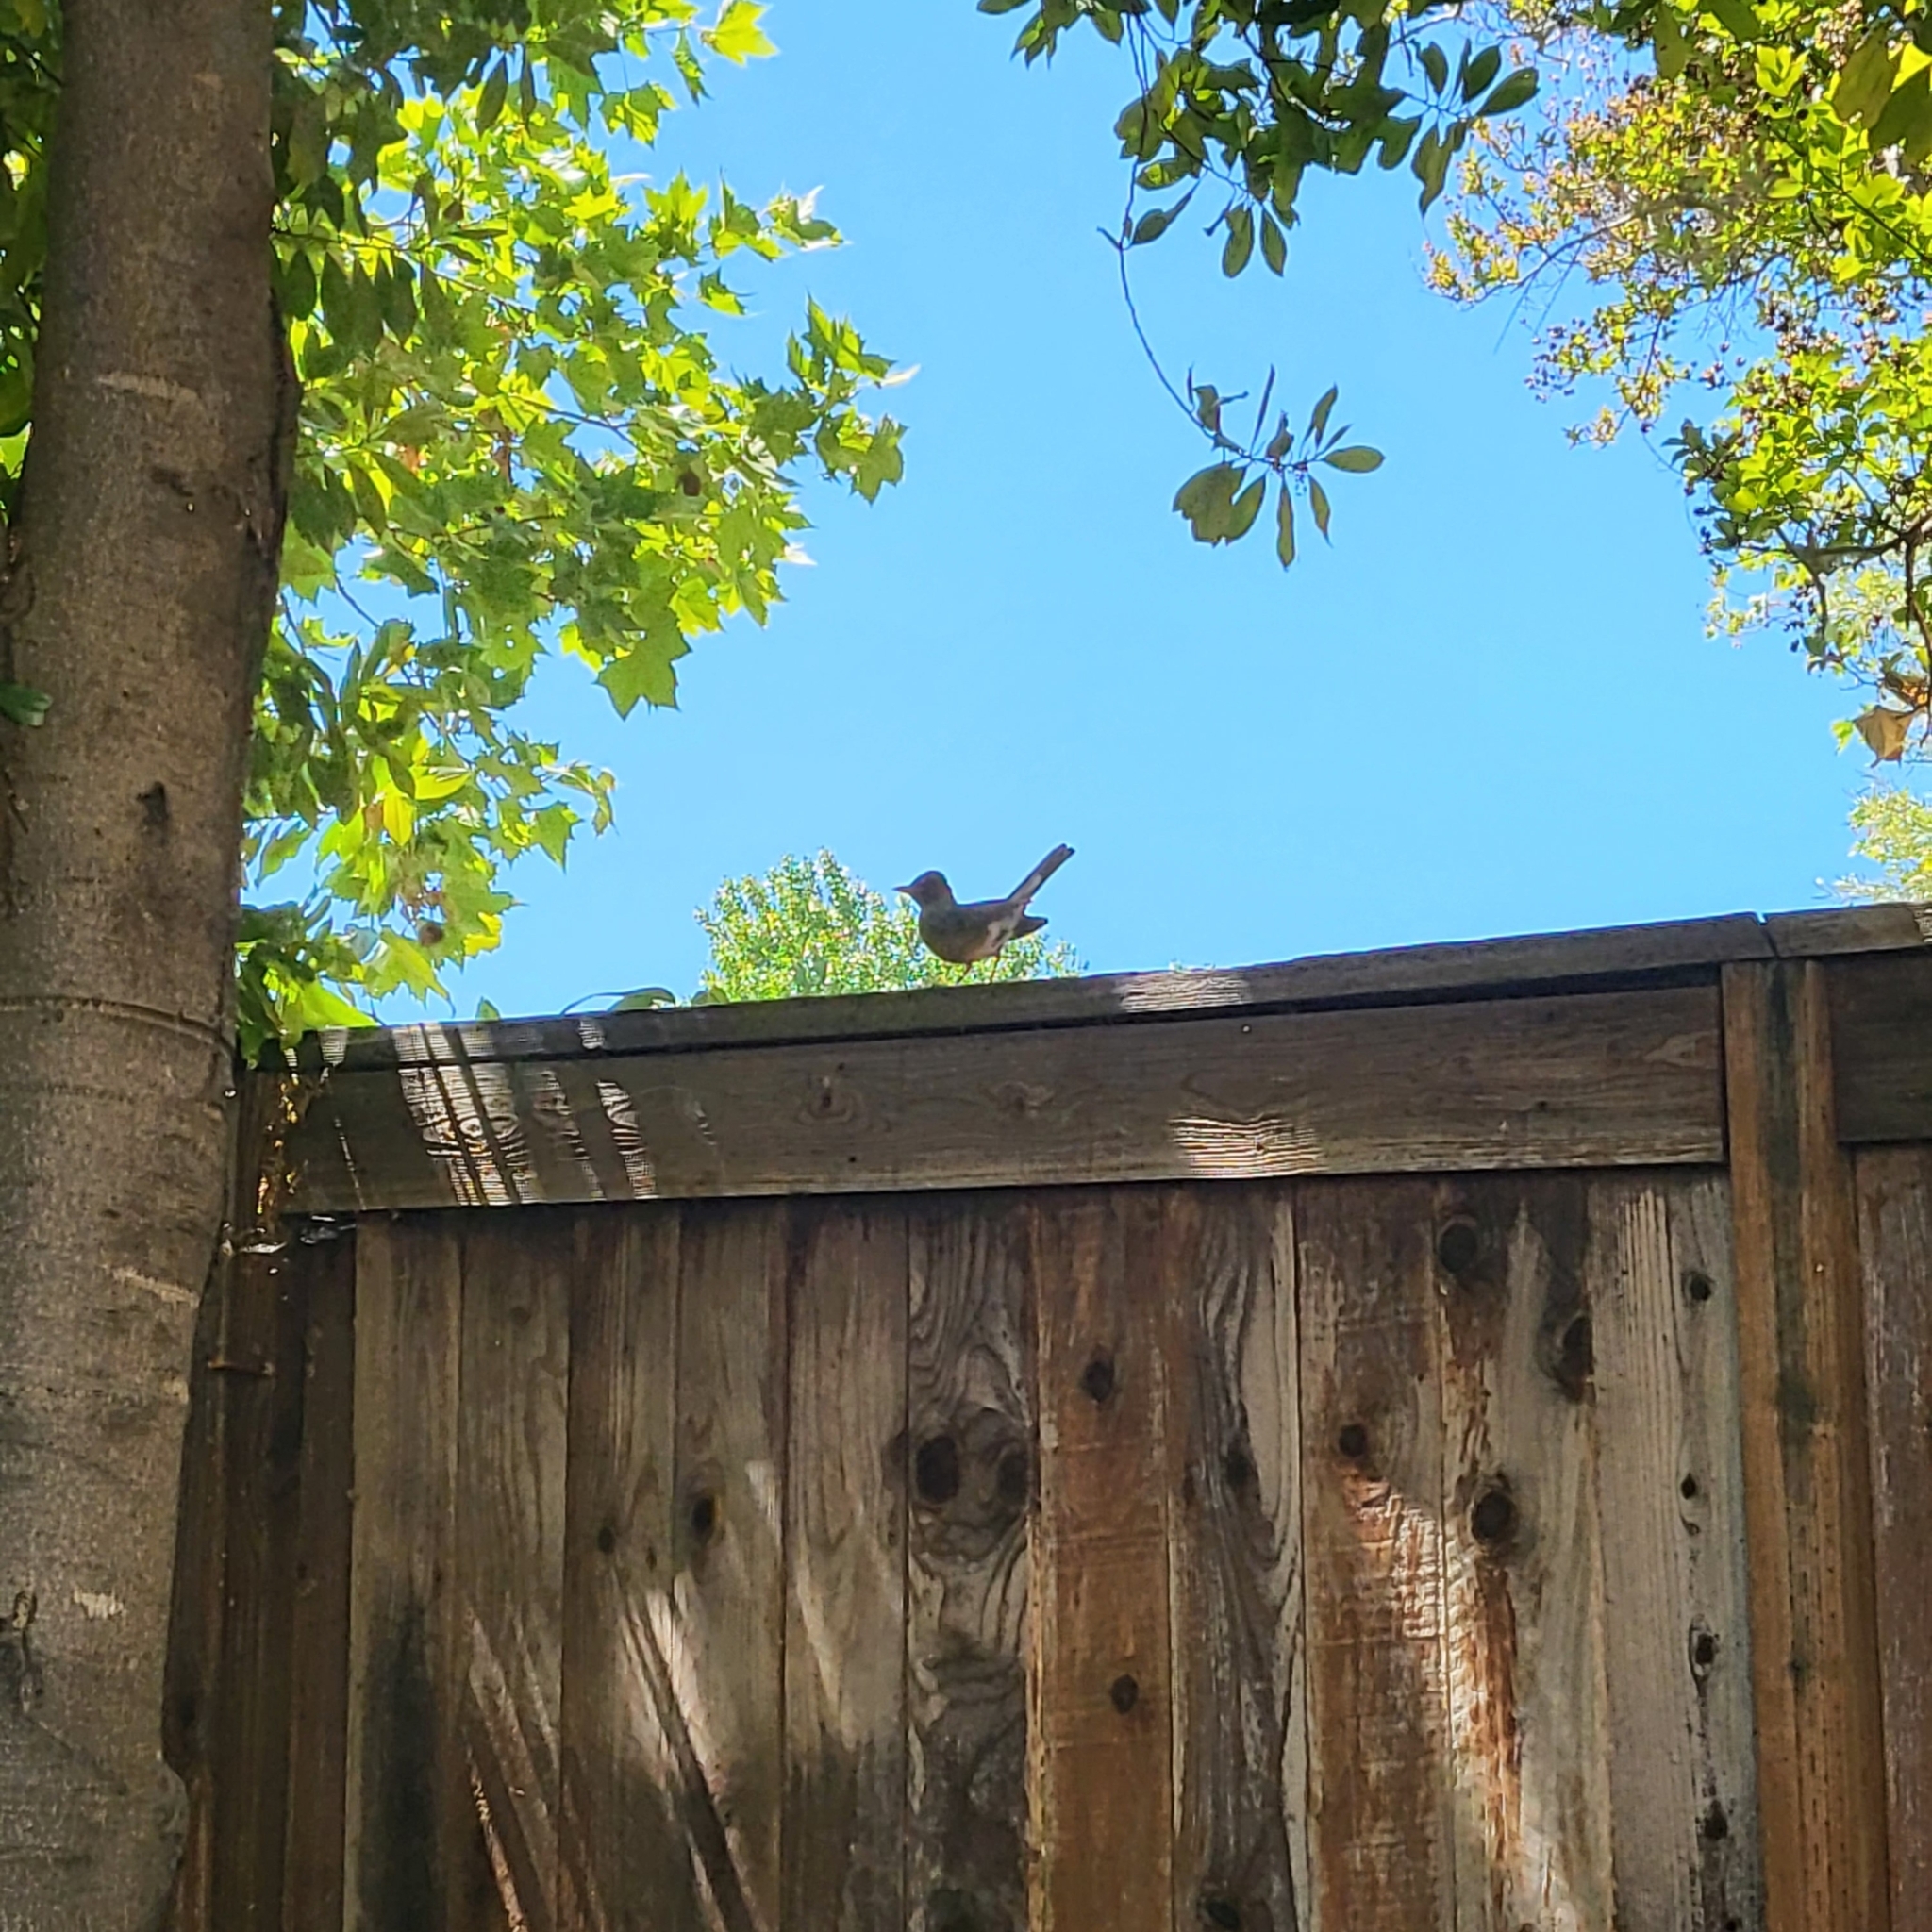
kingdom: Animalia
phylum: Chordata
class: Aves
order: Passeriformes
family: Turdidae
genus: Turdus
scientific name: Turdus migratorius
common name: American robin
